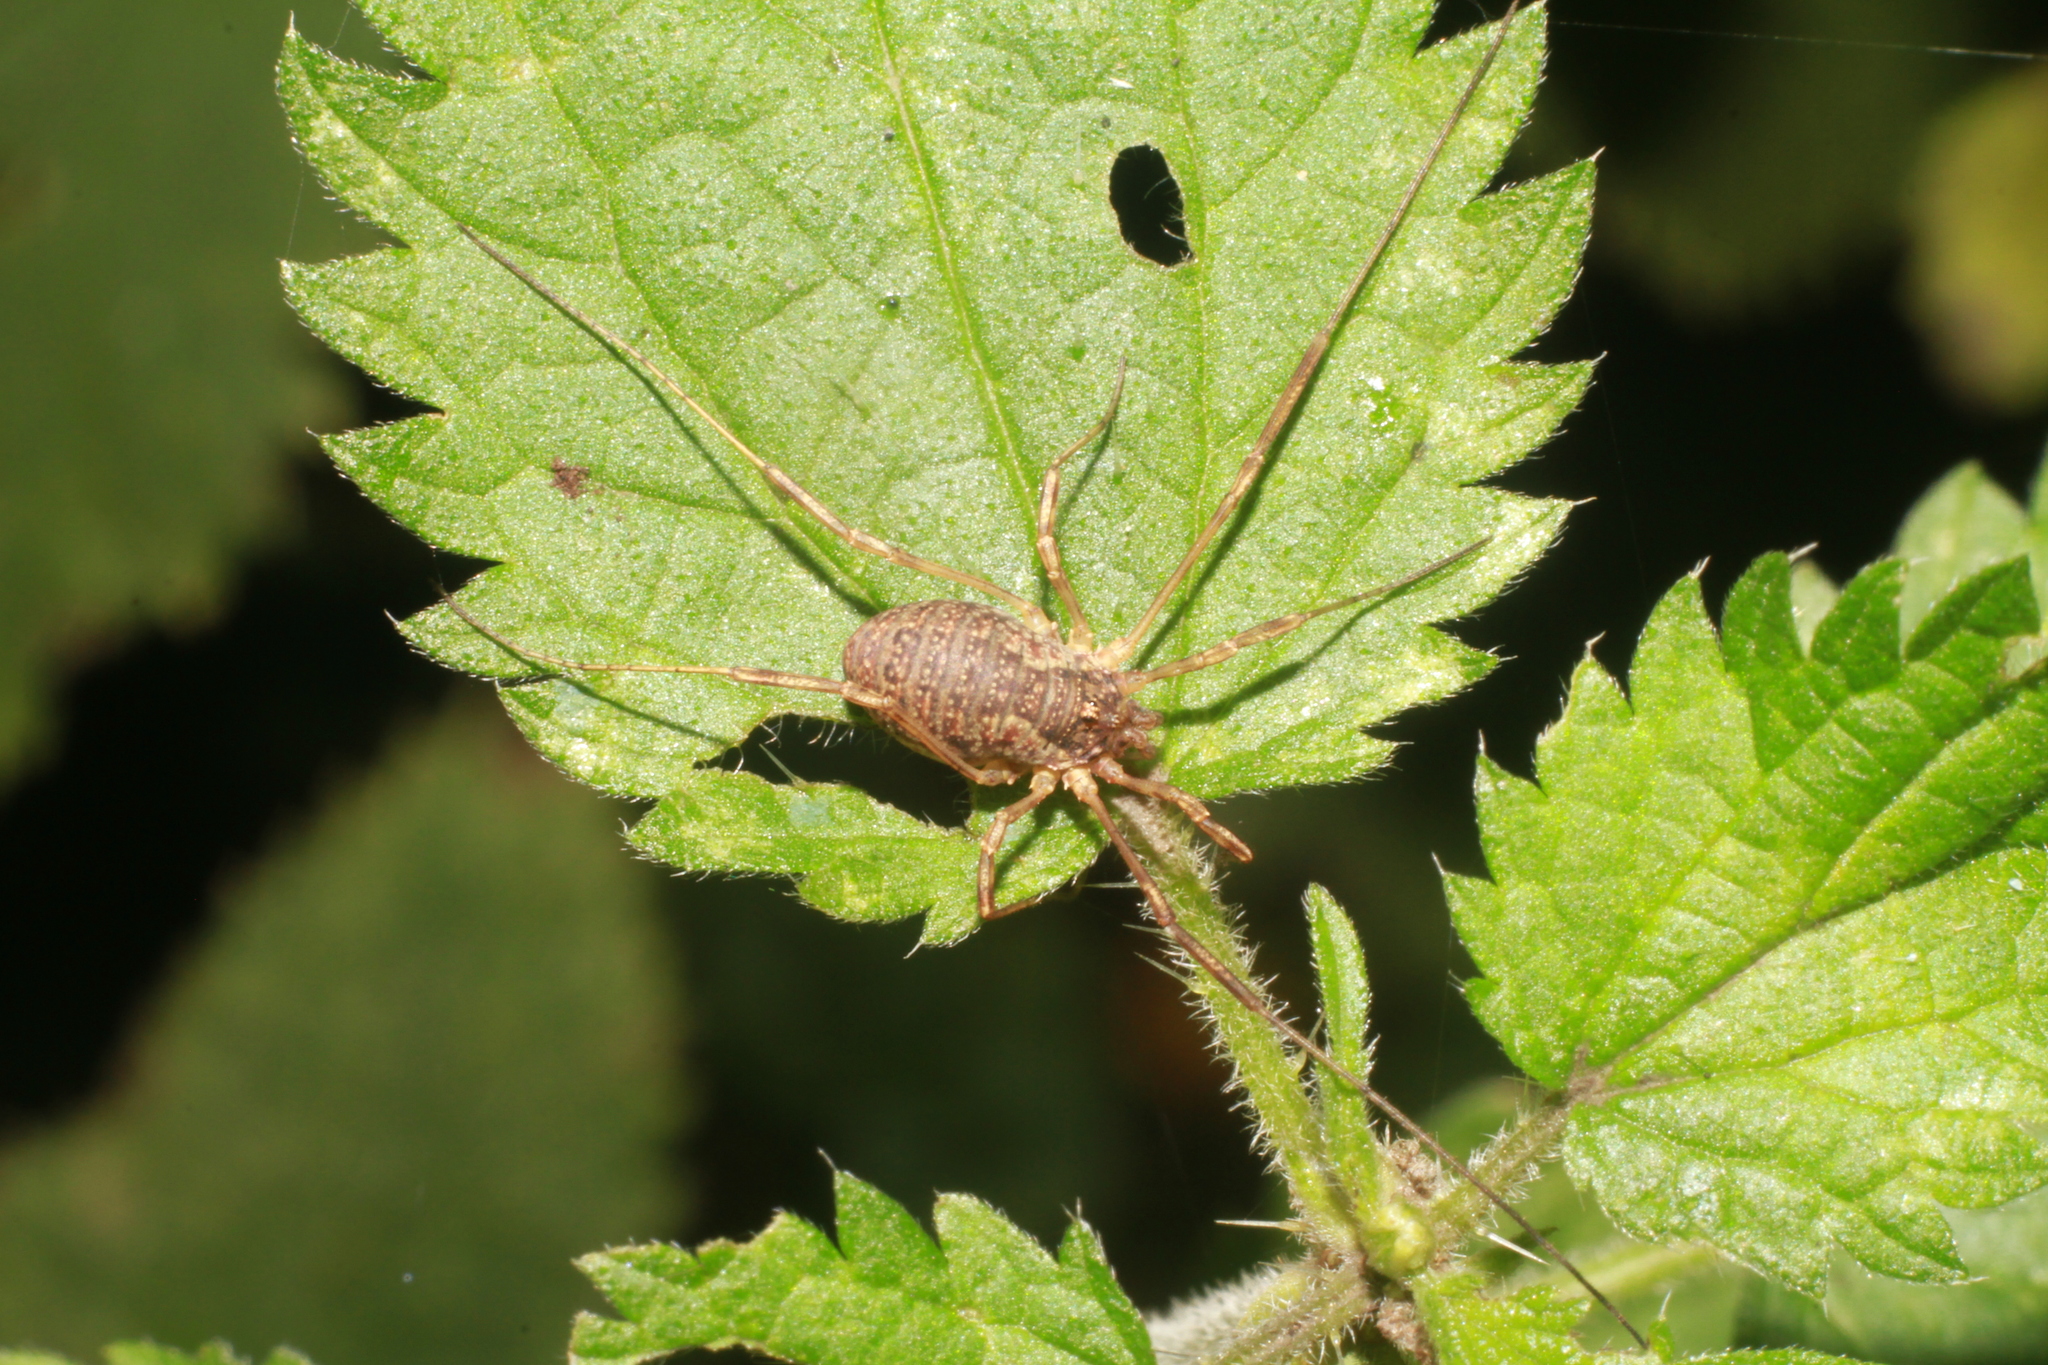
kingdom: Animalia
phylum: Arthropoda
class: Arachnida
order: Opiliones
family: Phalangiidae
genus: Oligolophus
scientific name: Oligolophus tridens
